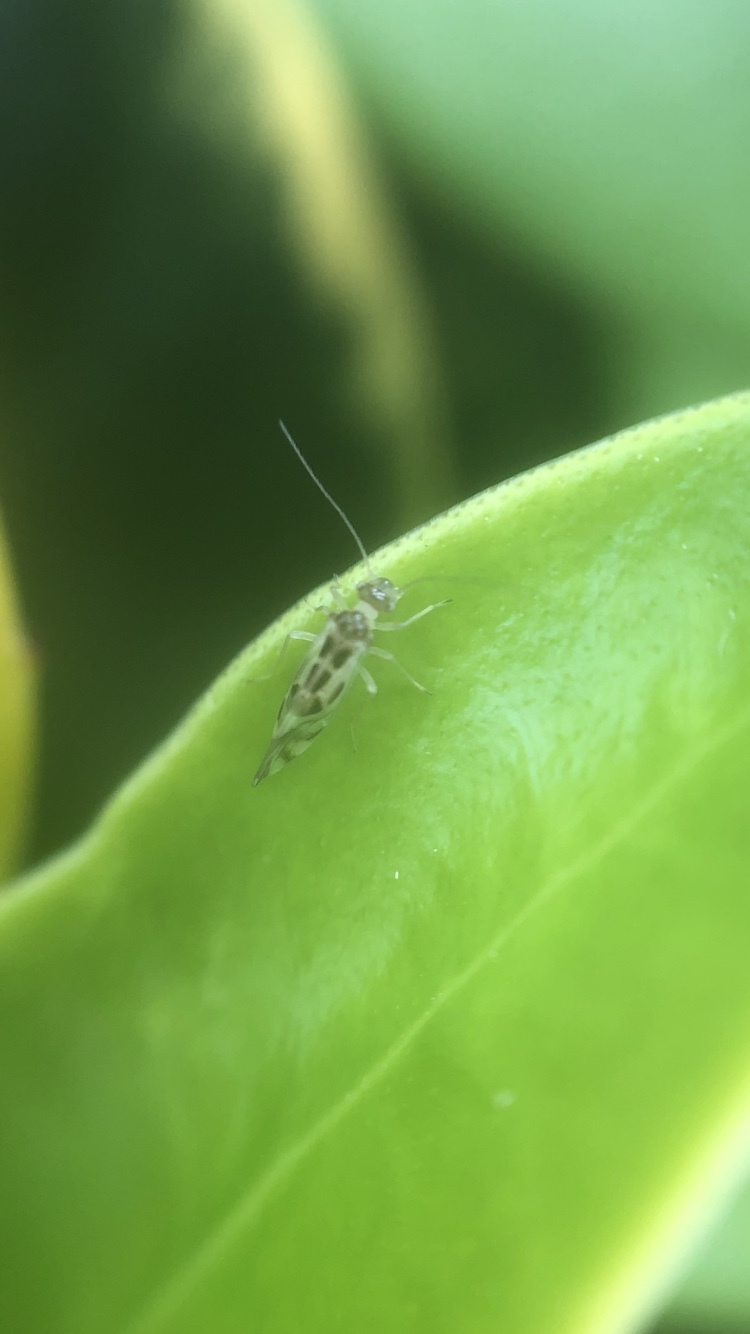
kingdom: Animalia
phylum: Arthropoda
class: Insecta
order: Psocodea
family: Stenopsocidae
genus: Graphopsocus
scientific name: Graphopsocus cruciatus
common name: Lizard bark louse
